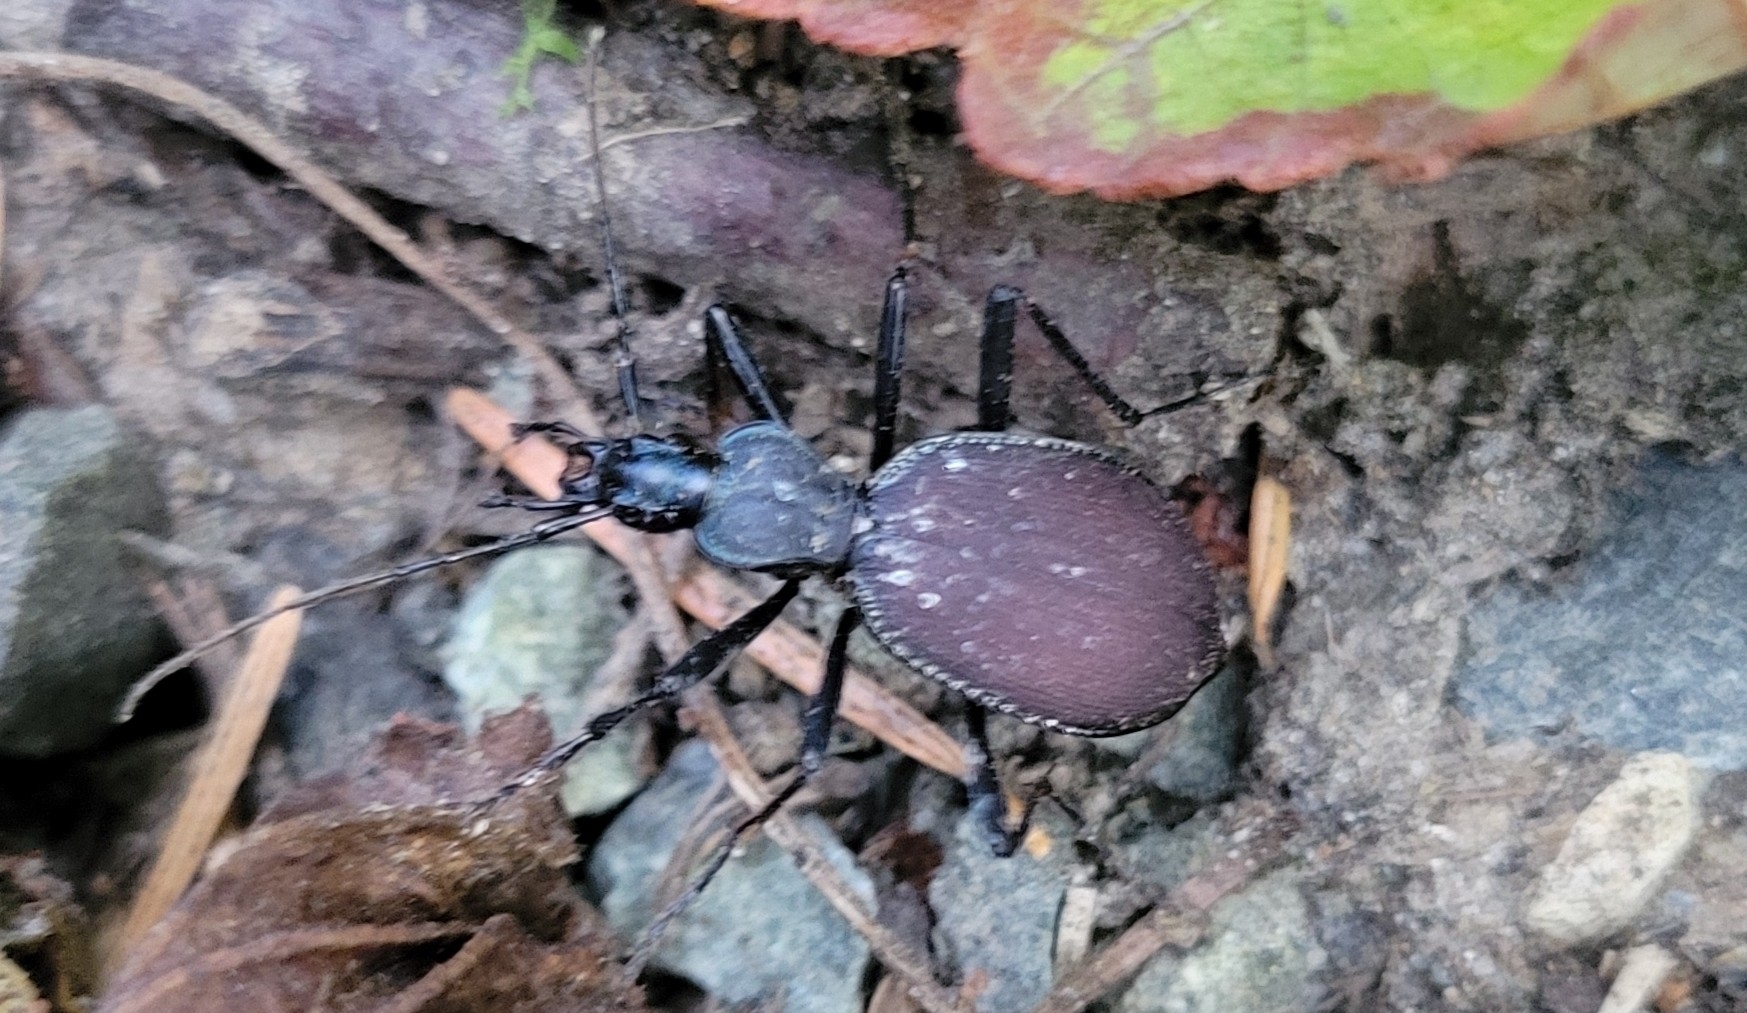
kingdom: Animalia
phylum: Arthropoda
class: Insecta
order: Coleoptera
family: Carabidae
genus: Scaphinotus
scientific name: Scaphinotus angusticollis
